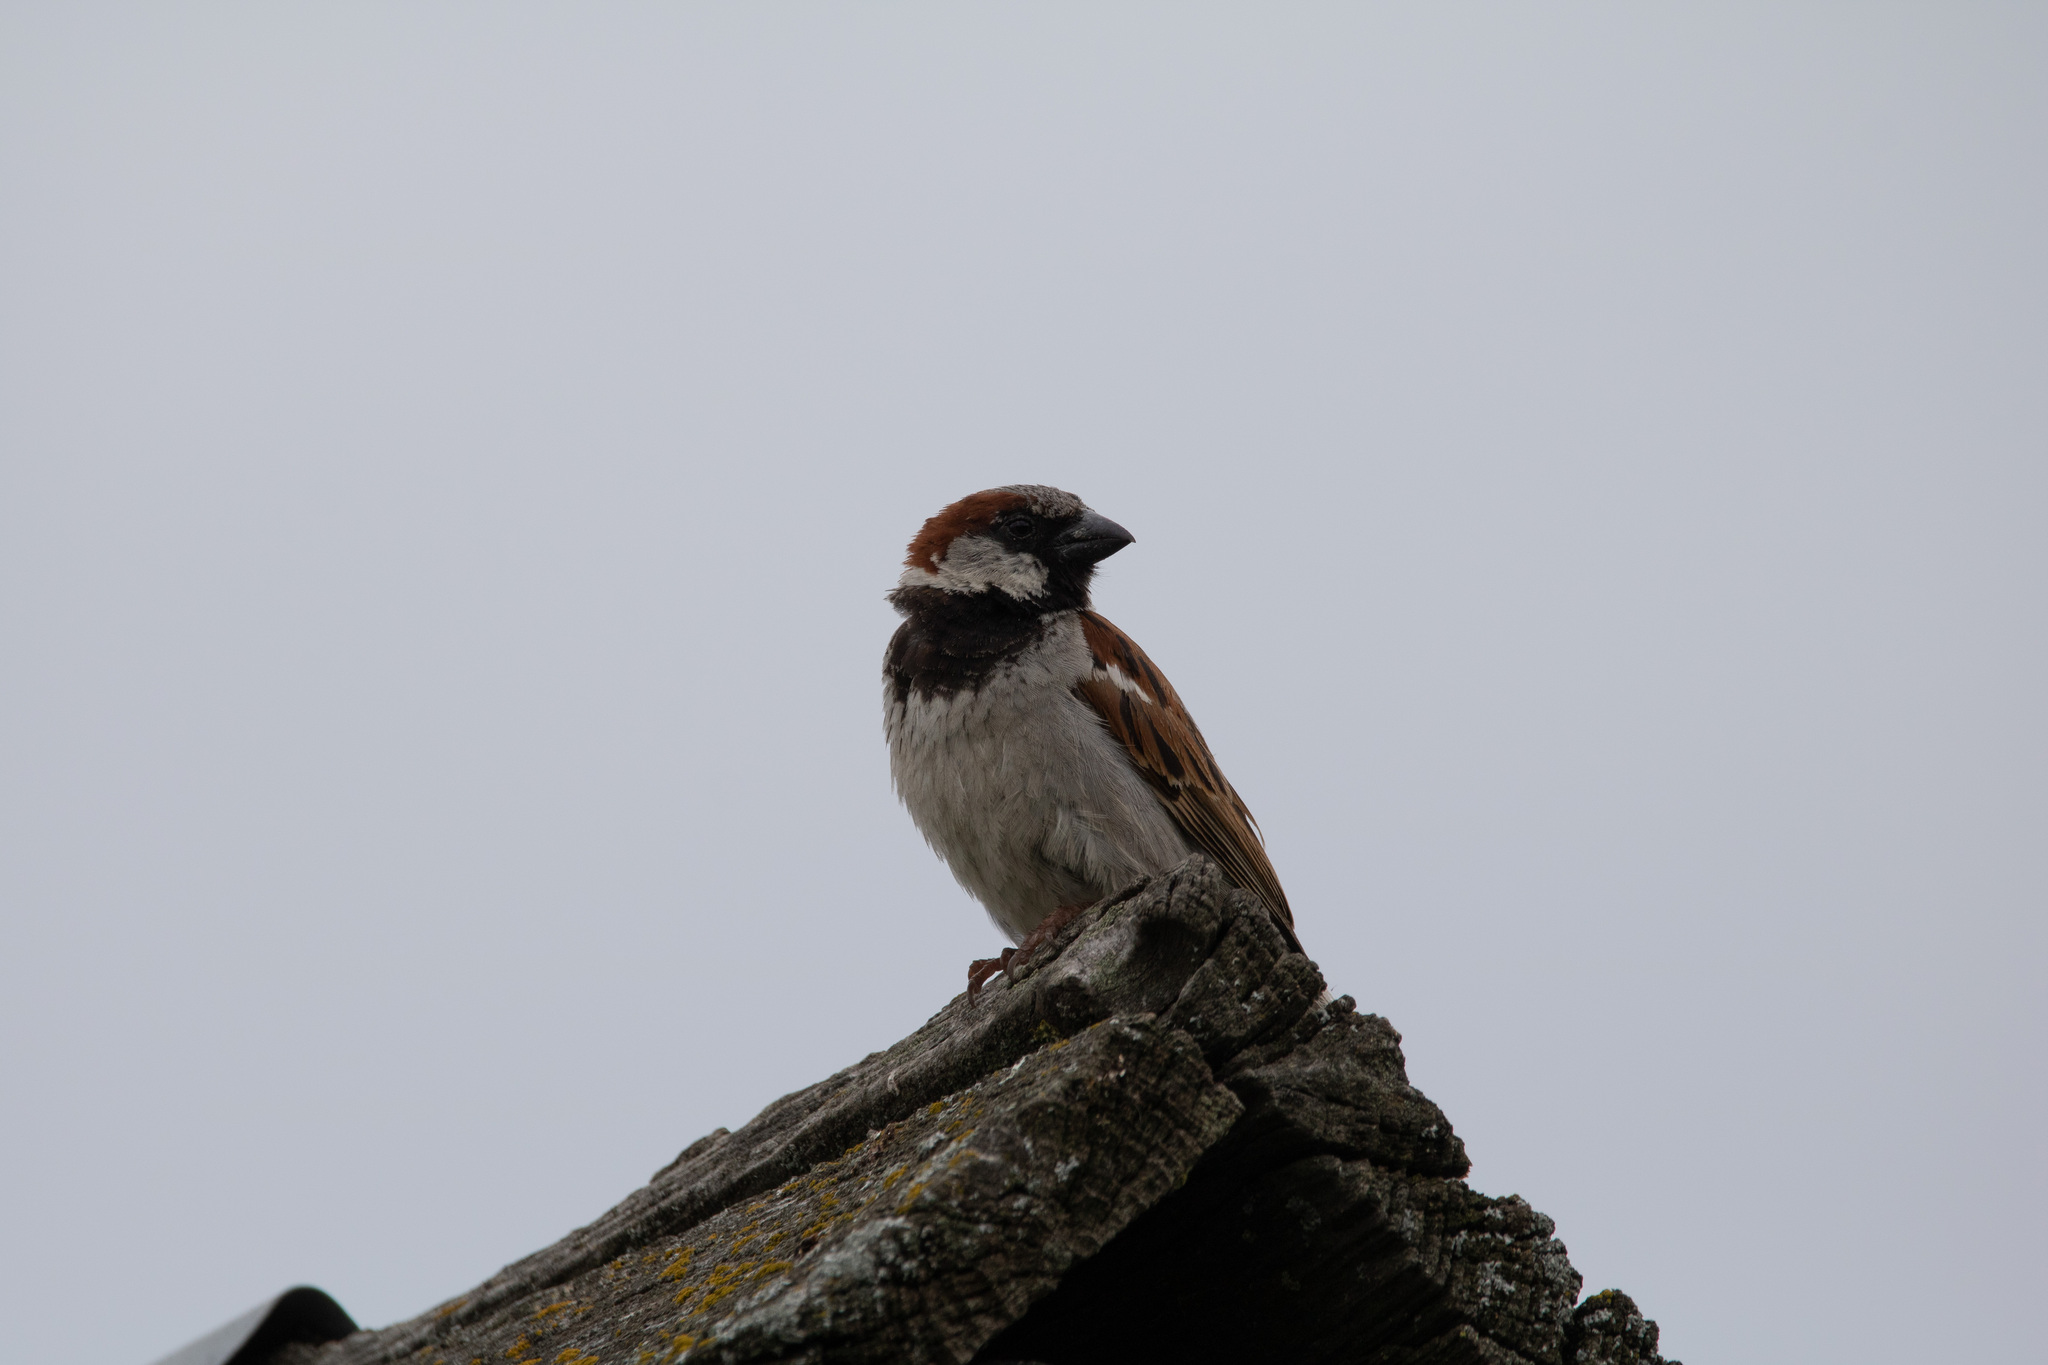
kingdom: Animalia
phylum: Chordata
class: Aves
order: Passeriformes
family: Passeridae
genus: Passer
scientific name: Passer domesticus
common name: House sparrow
